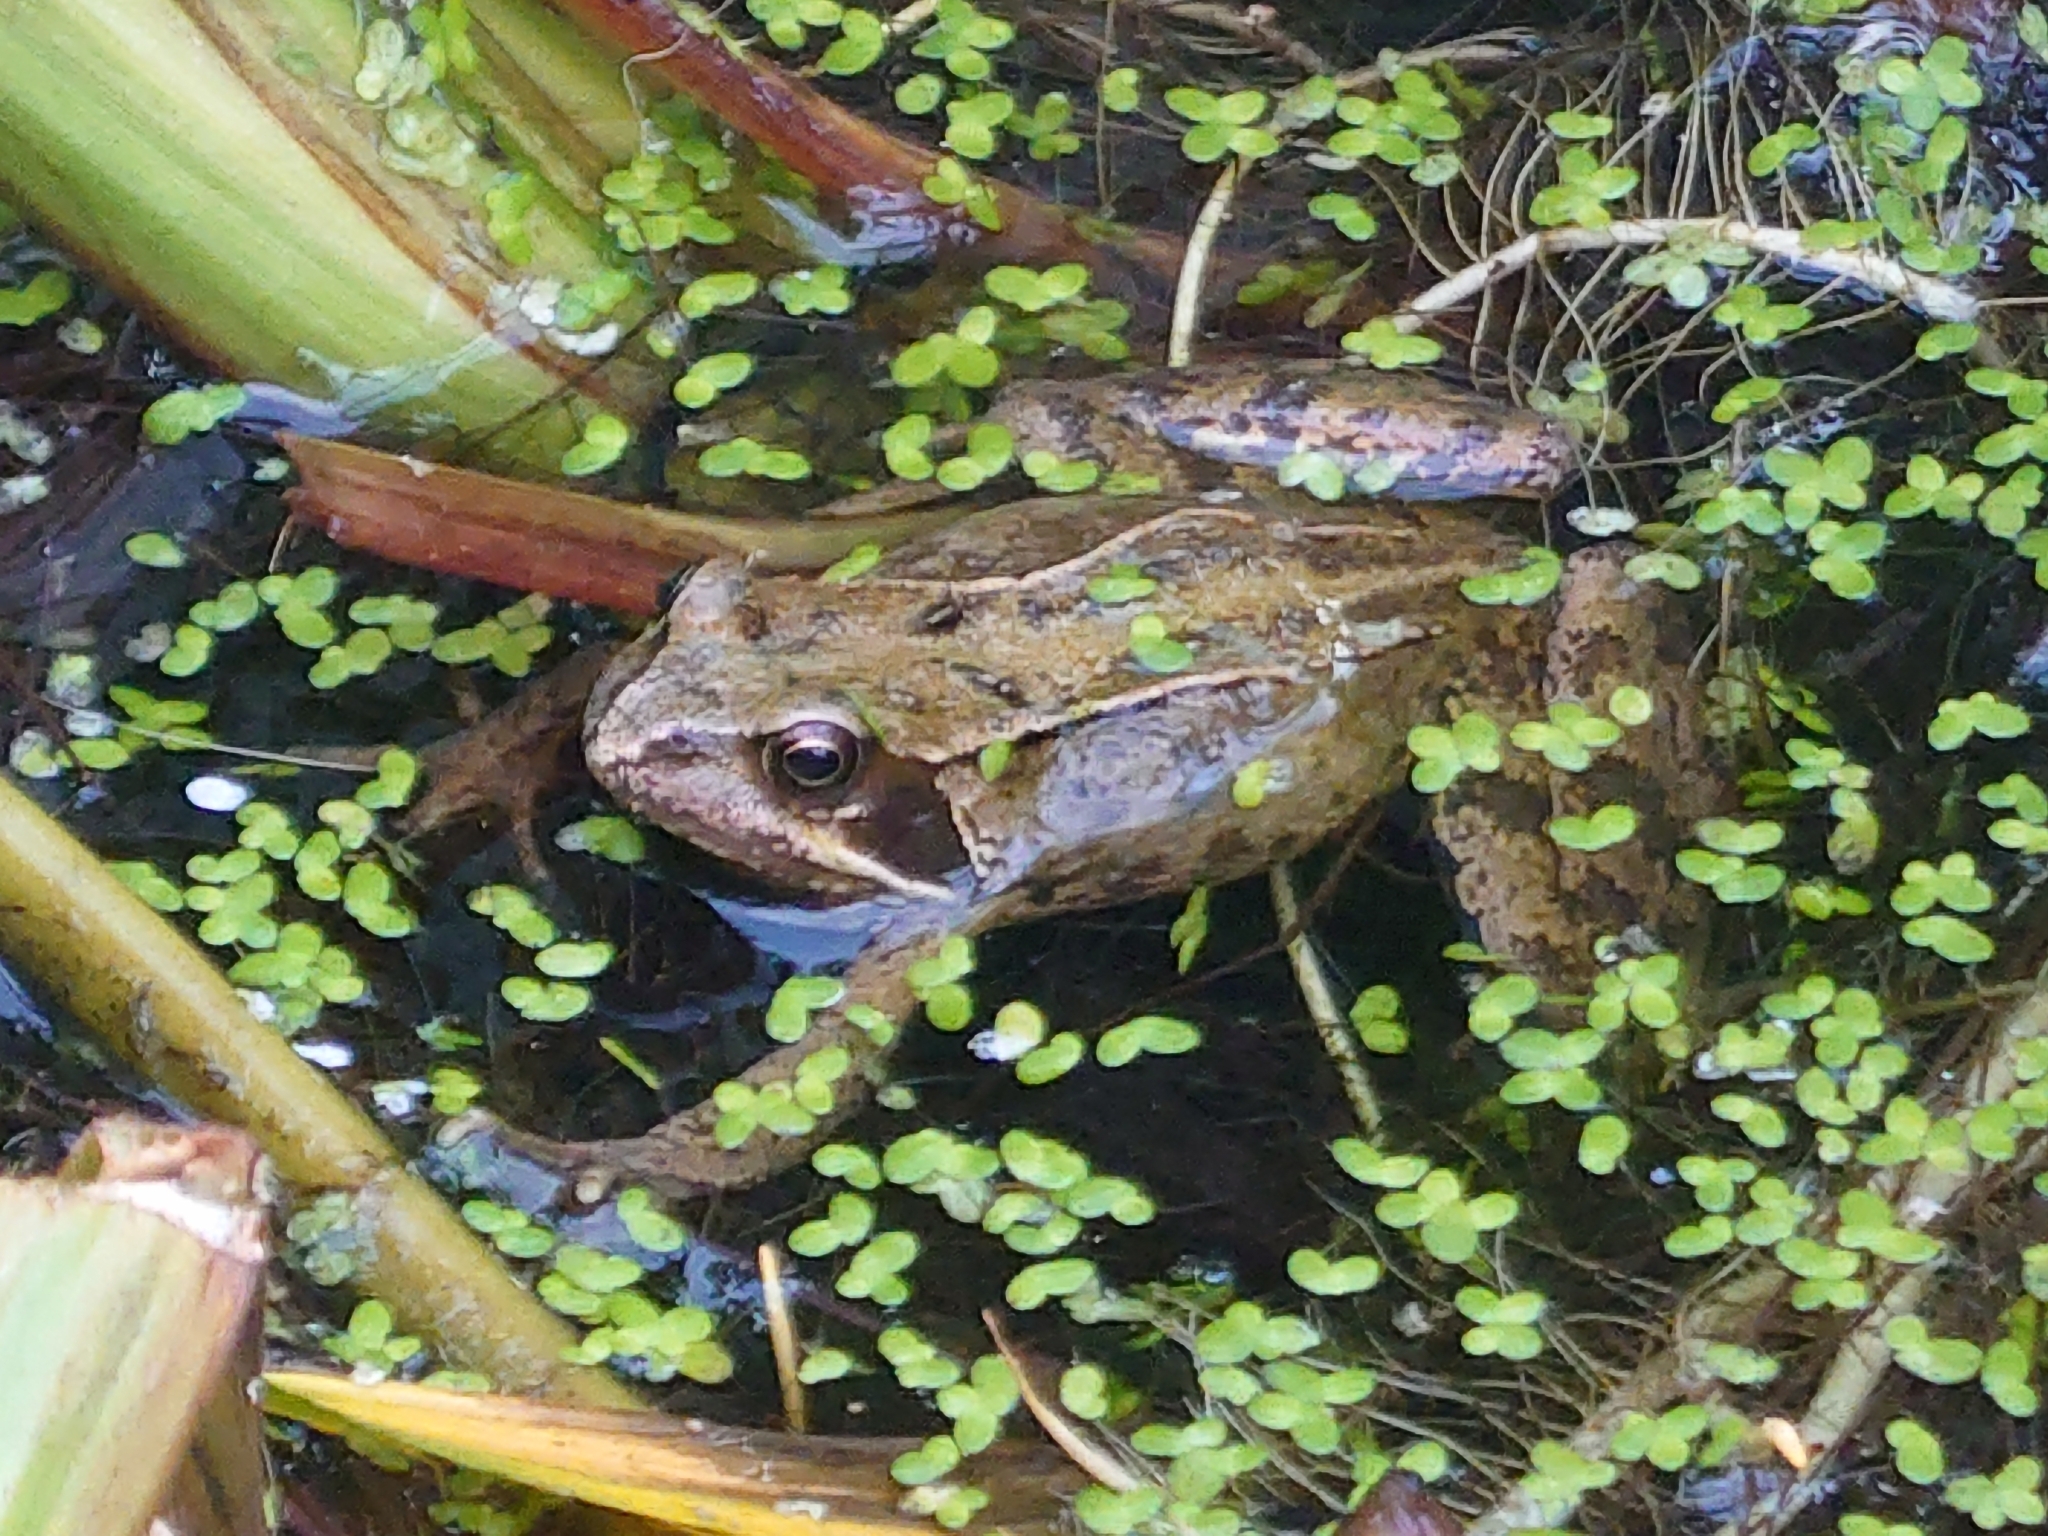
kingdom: Animalia
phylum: Chordata
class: Amphibia
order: Anura
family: Ranidae
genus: Rana
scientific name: Rana temporaria
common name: Common frog
